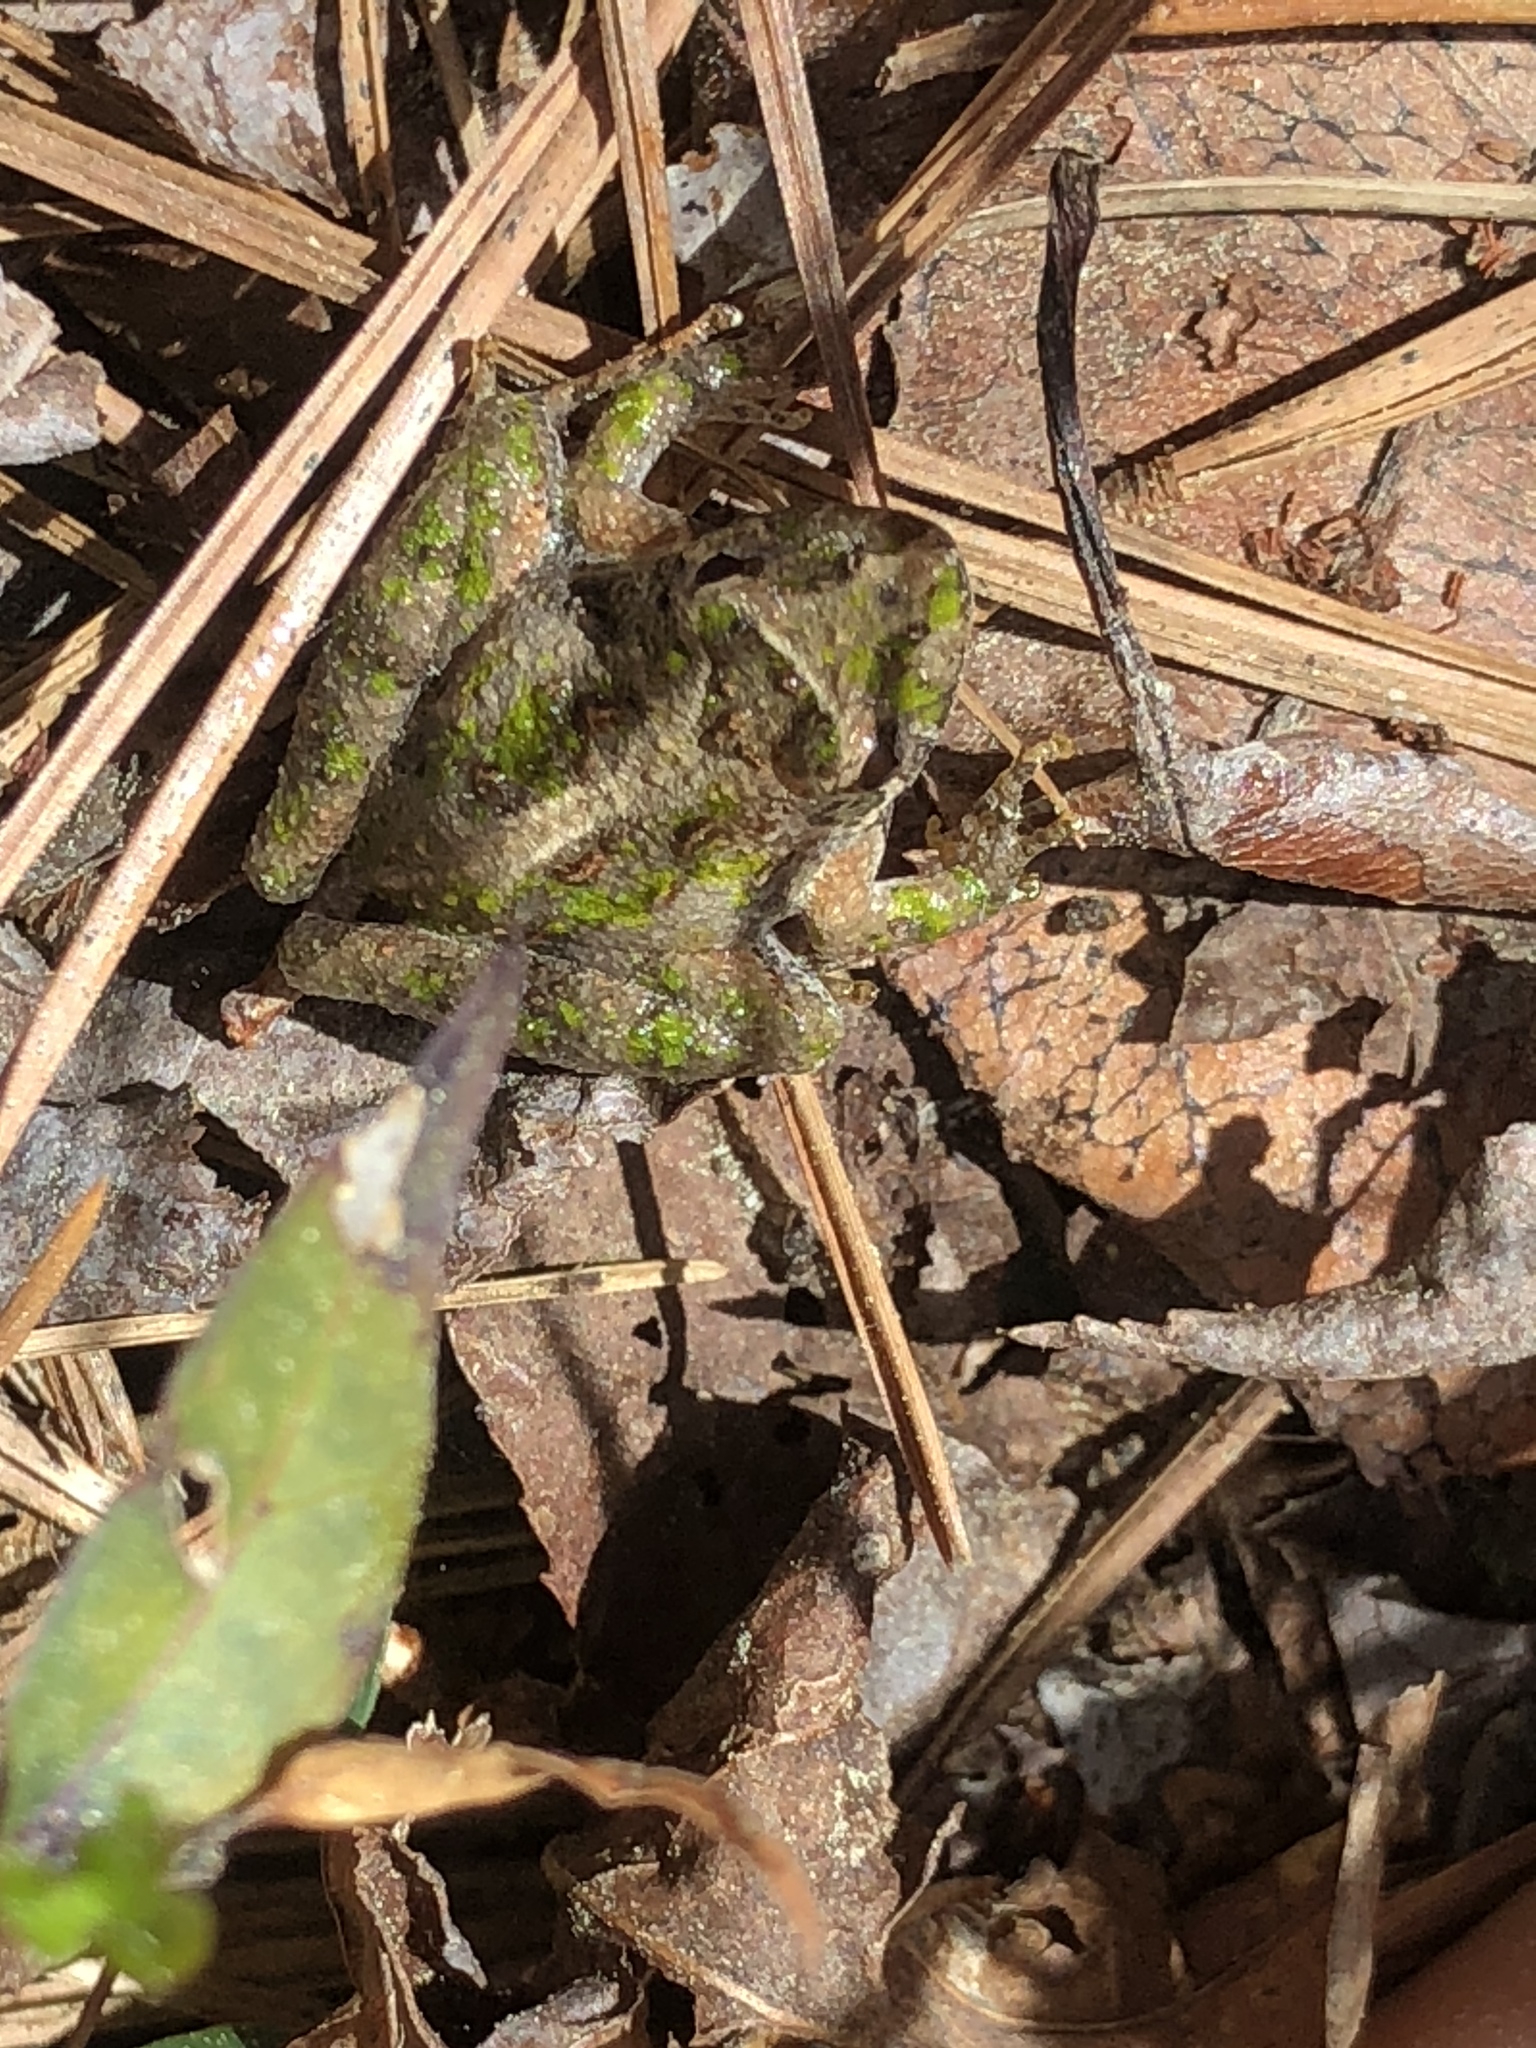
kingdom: Animalia
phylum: Chordata
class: Amphibia
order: Anura
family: Hylidae
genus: Acris
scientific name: Acris gryllus
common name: Southern cricket frog
